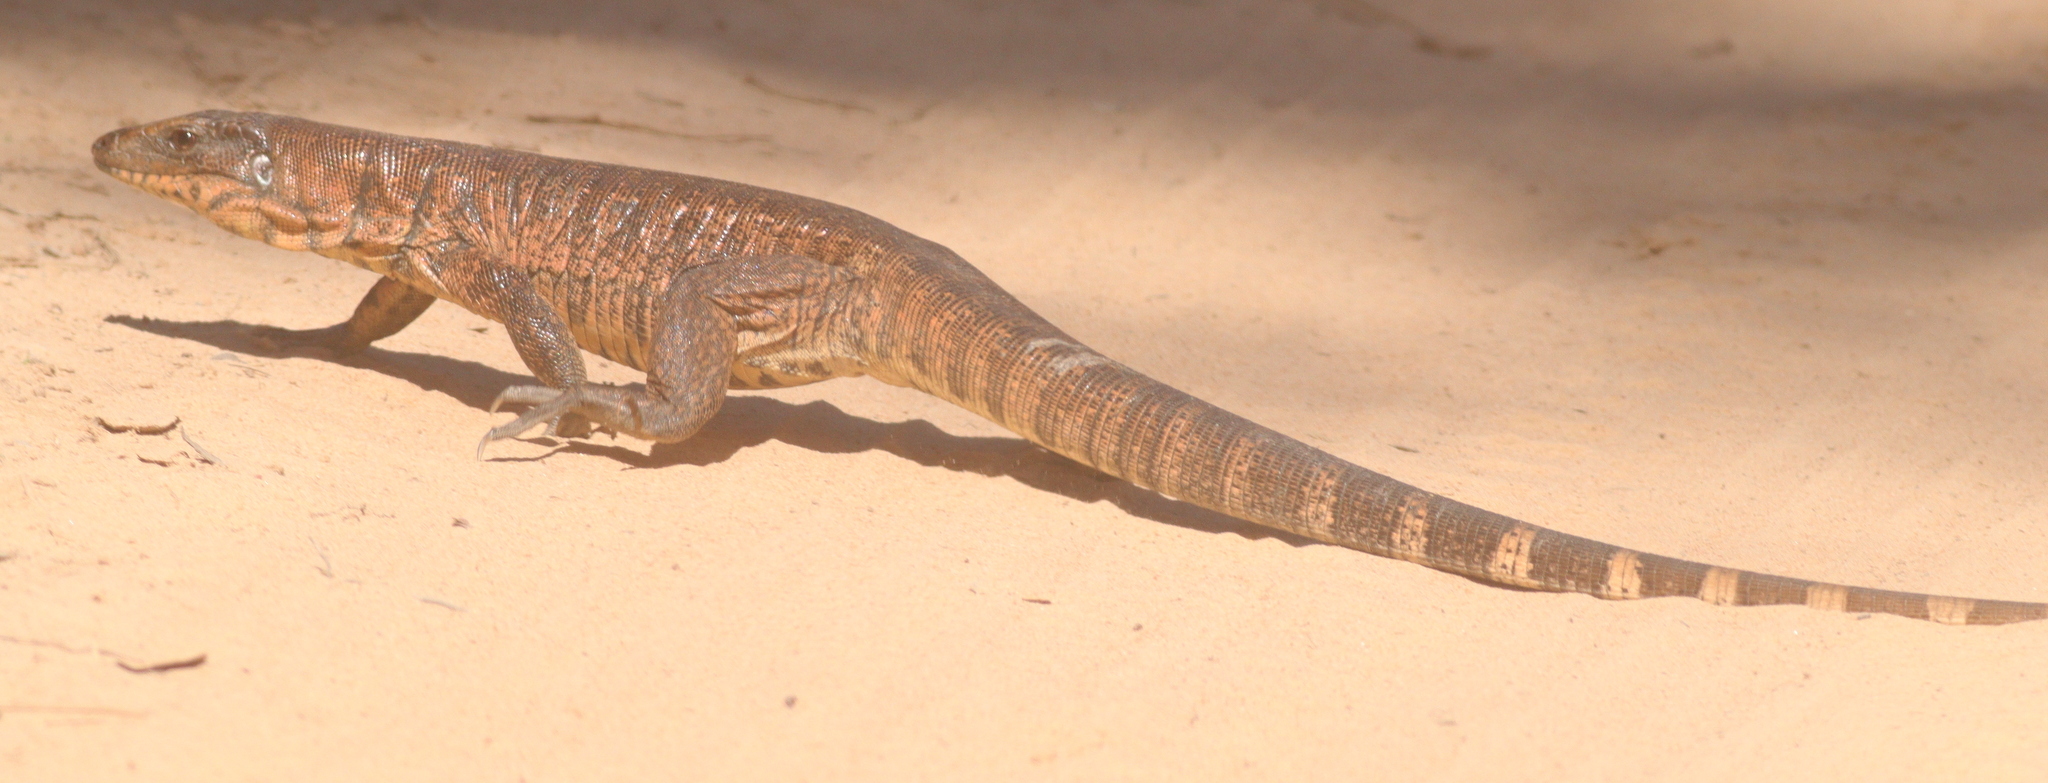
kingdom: Animalia
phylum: Chordata
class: Squamata
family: Teiidae
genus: Tupinambis
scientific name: Tupinambis teguixin
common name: Black tegu
